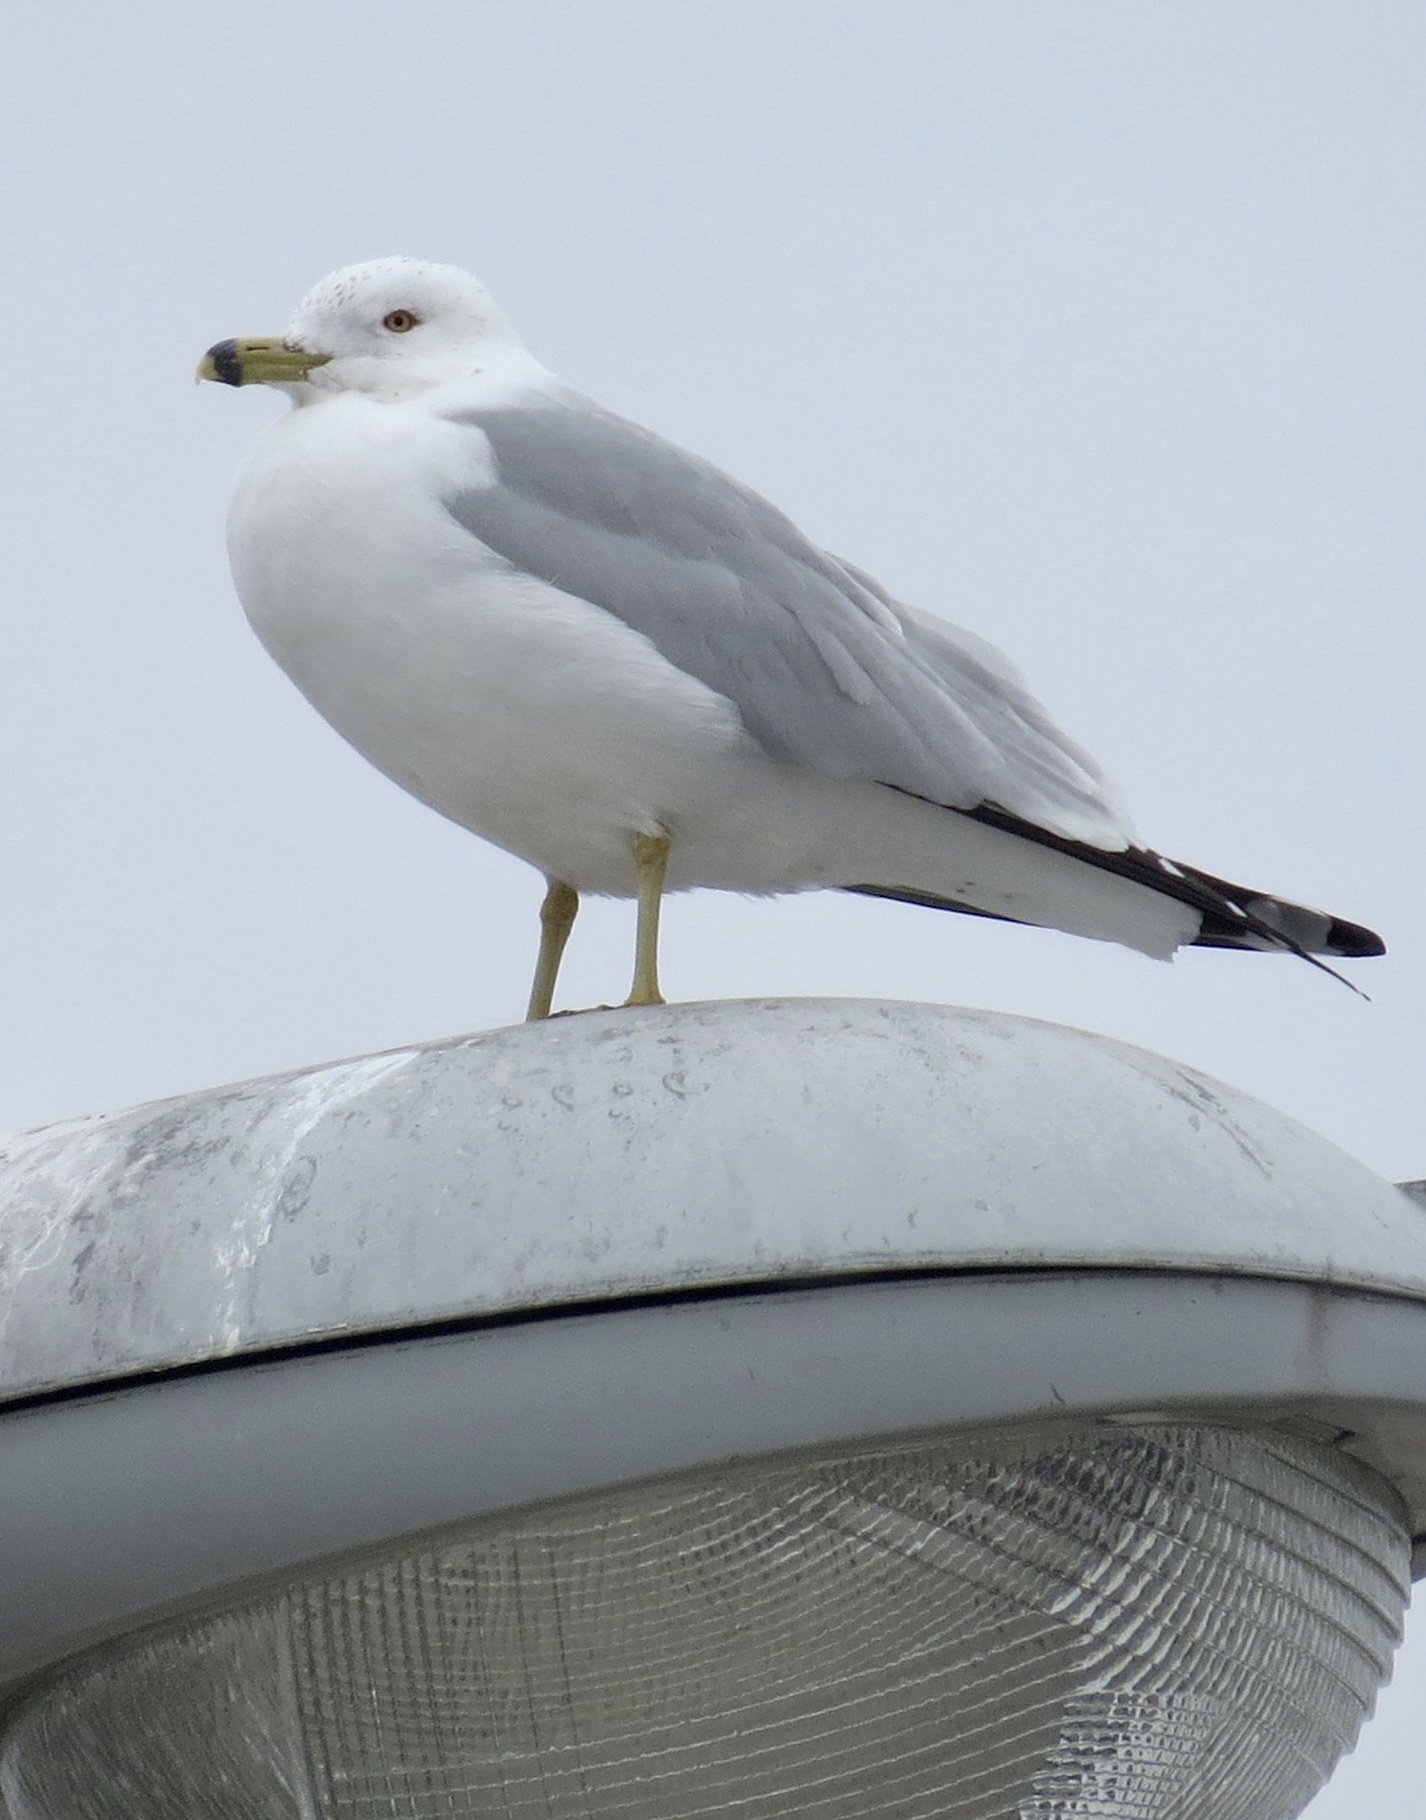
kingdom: Animalia
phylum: Chordata
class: Aves
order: Charadriiformes
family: Laridae
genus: Larus
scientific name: Larus delawarensis
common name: Ring-billed gull
